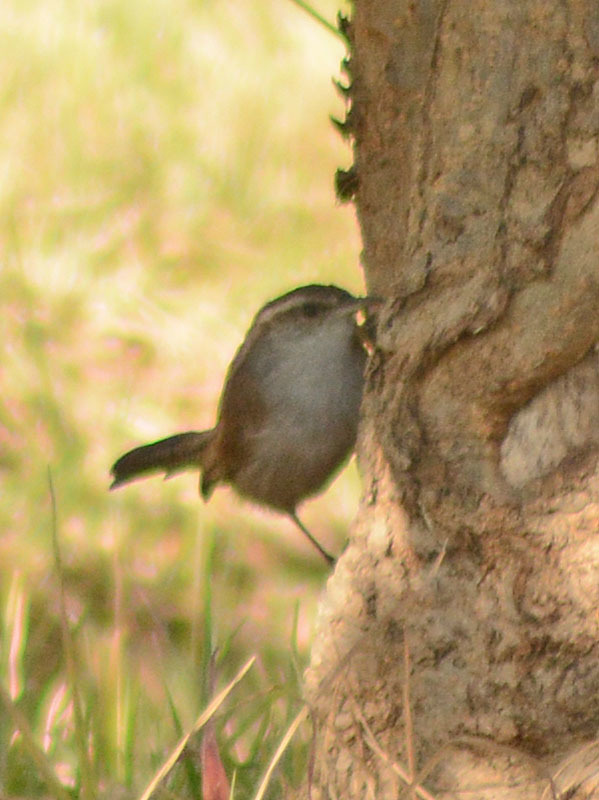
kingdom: Animalia
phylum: Chordata
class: Aves
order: Passeriformes
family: Troglodytidae
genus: Thryomanes
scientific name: Thryomanes bewickii
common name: Bewick's wren
